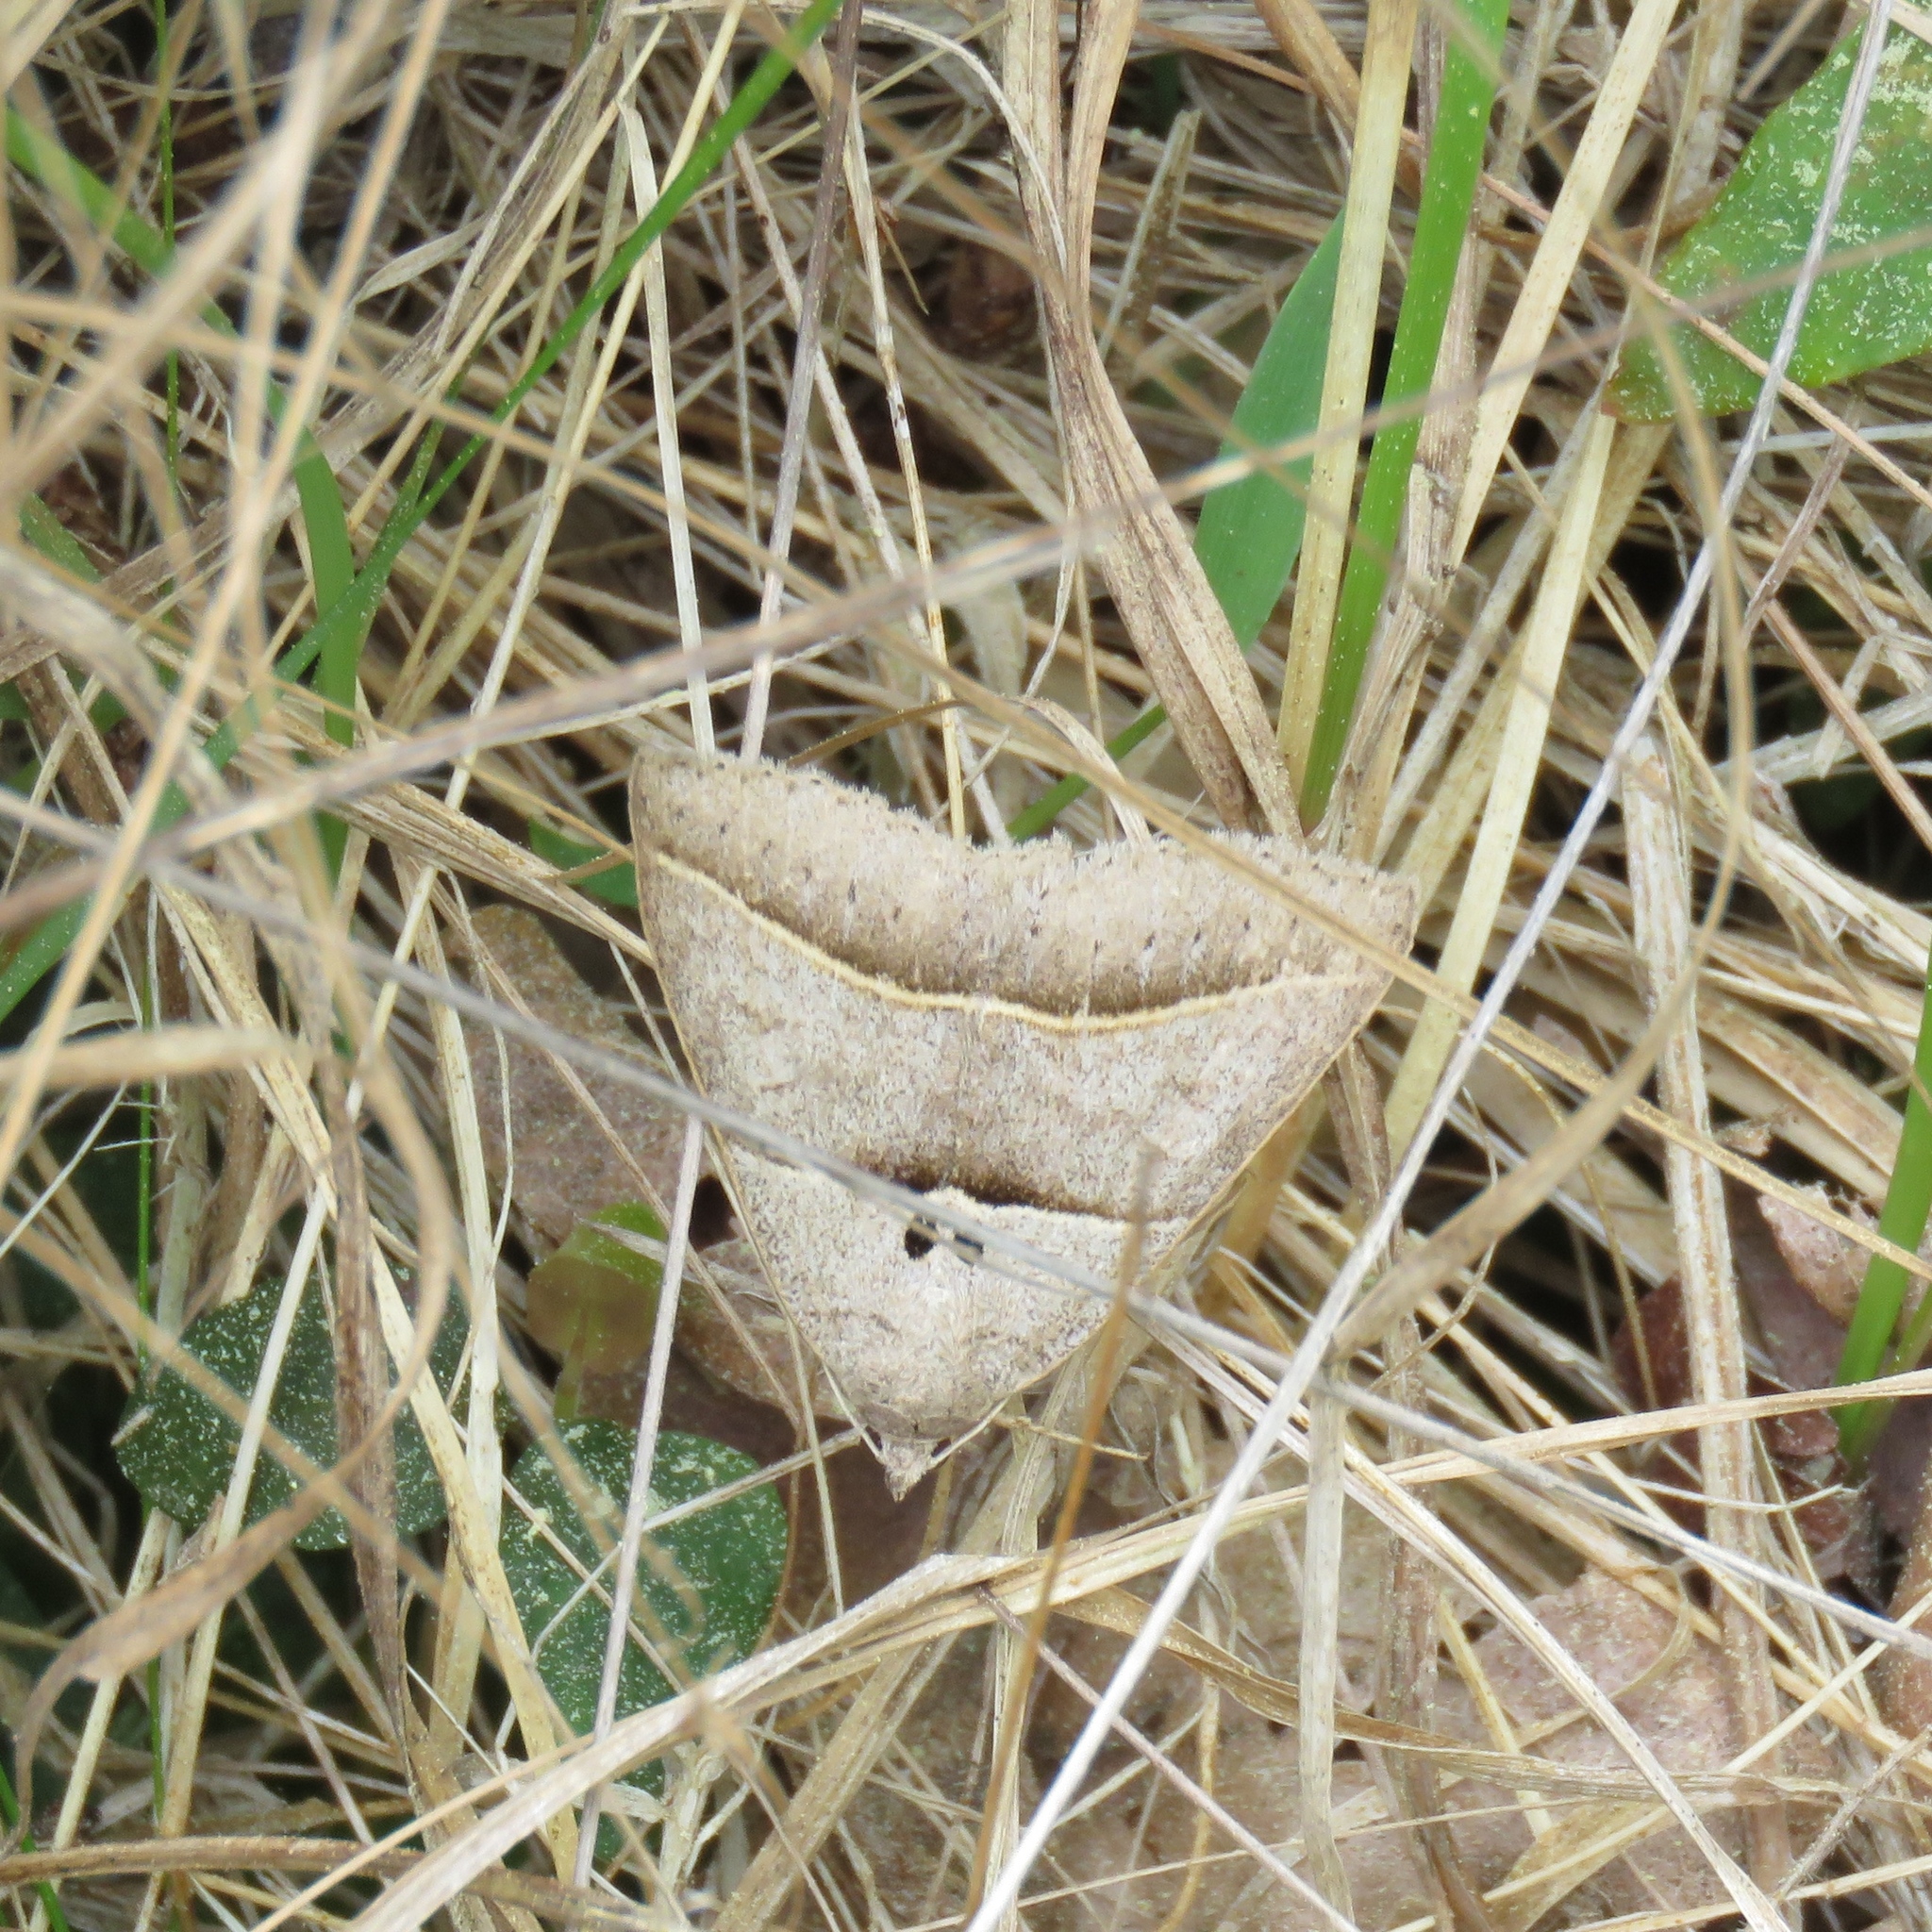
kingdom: Animalia
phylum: Arthropoda
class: Insecta
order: Lepidoptera
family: Erebidae
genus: Ptichodis
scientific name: Ptichodis herbarum
